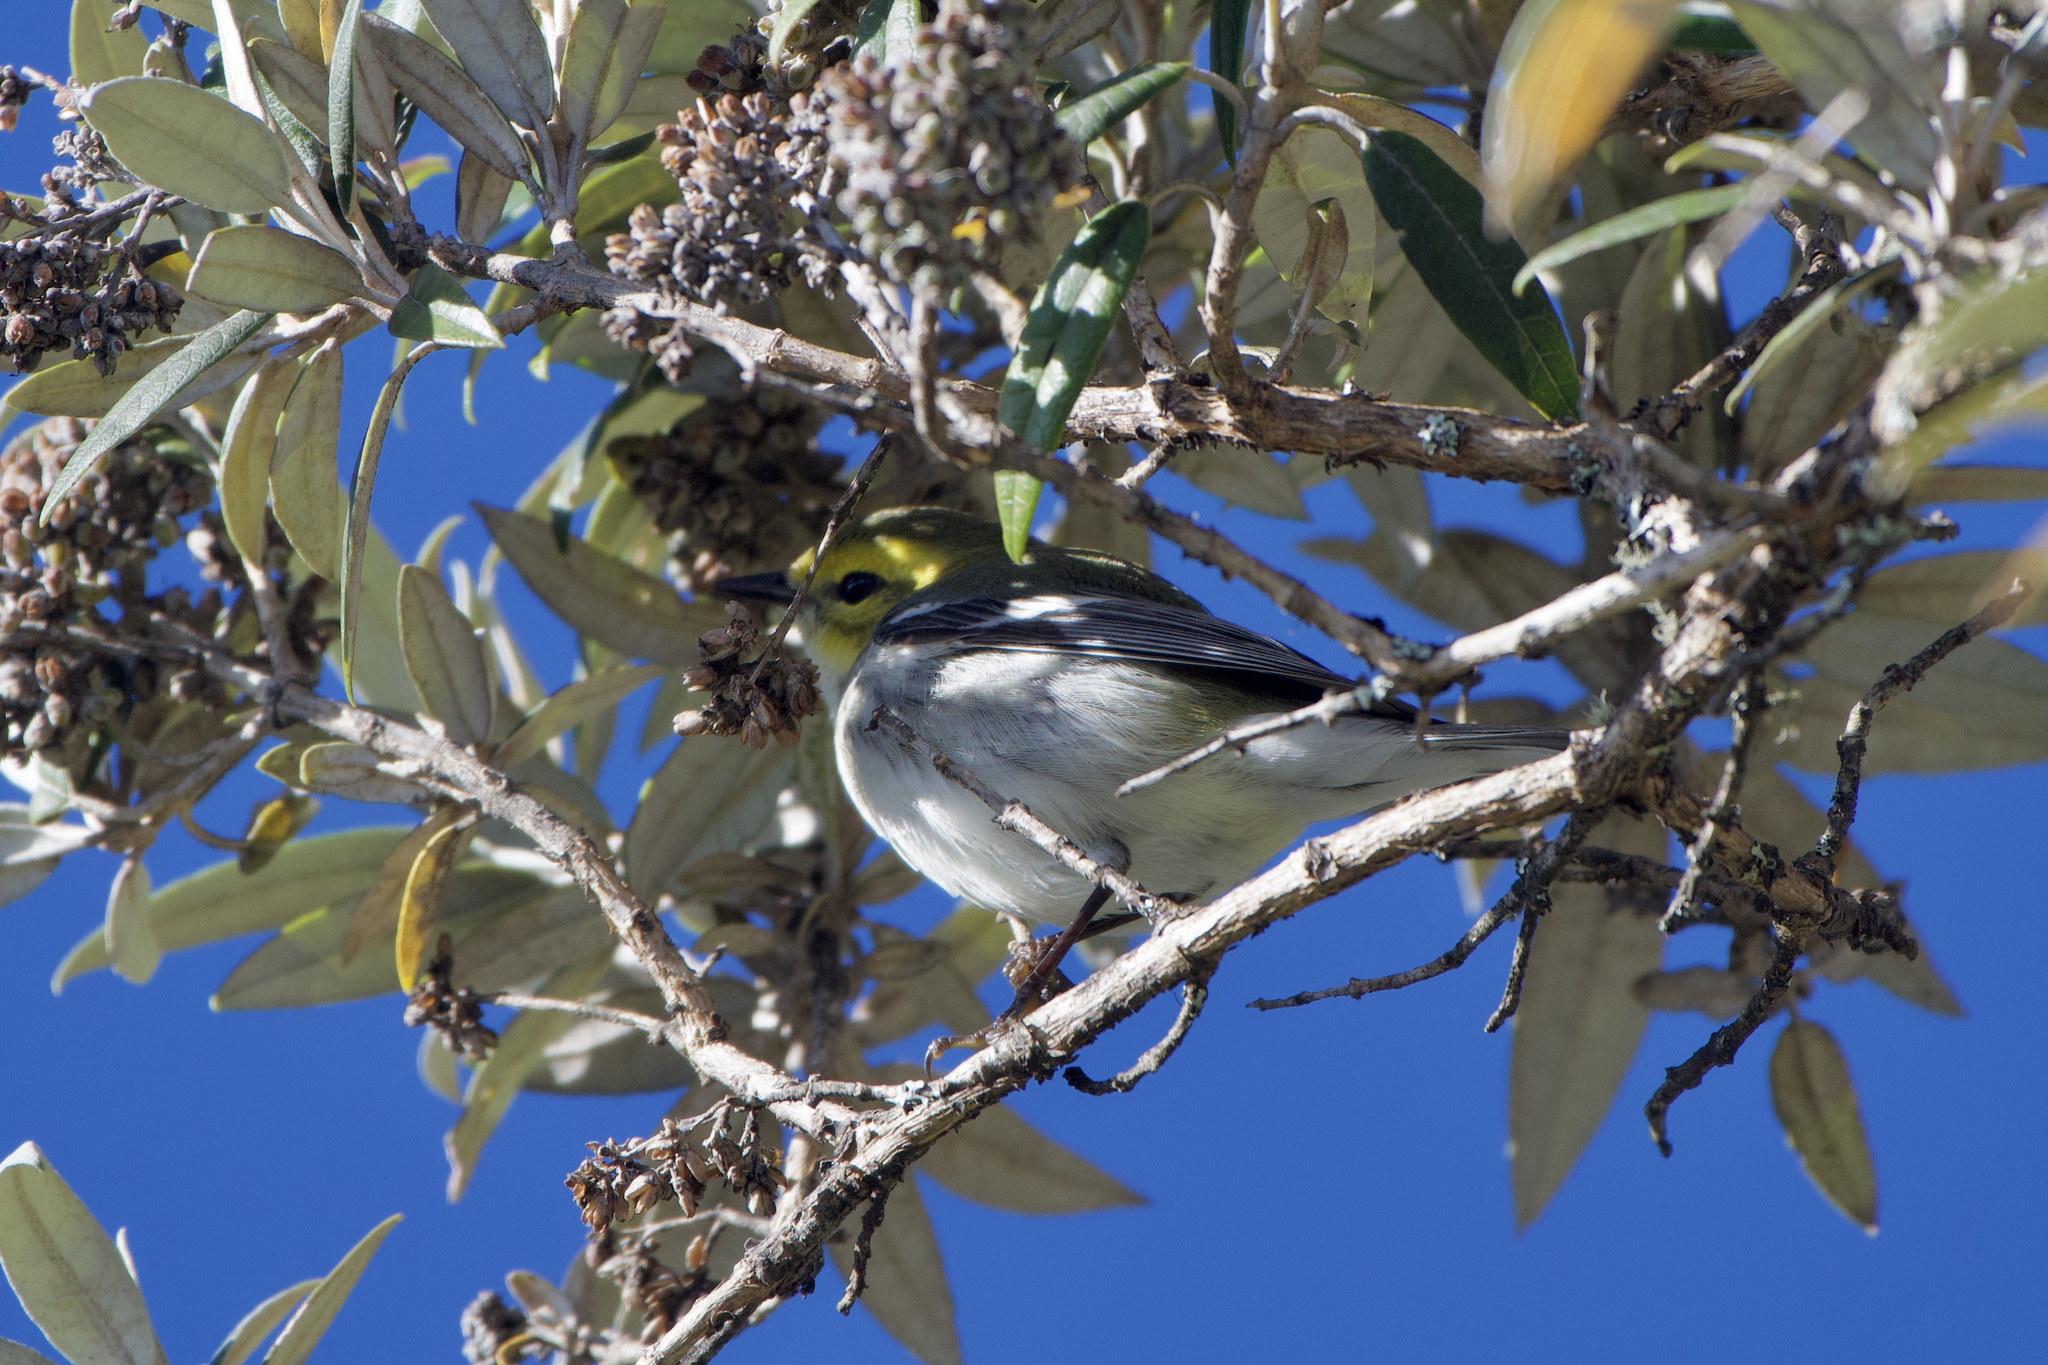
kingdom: Animalia
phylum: Chordata
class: Aves
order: Passeriformes
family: Parulidae
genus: Setophaga
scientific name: Setophaga virens
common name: Black-throated green warbler
